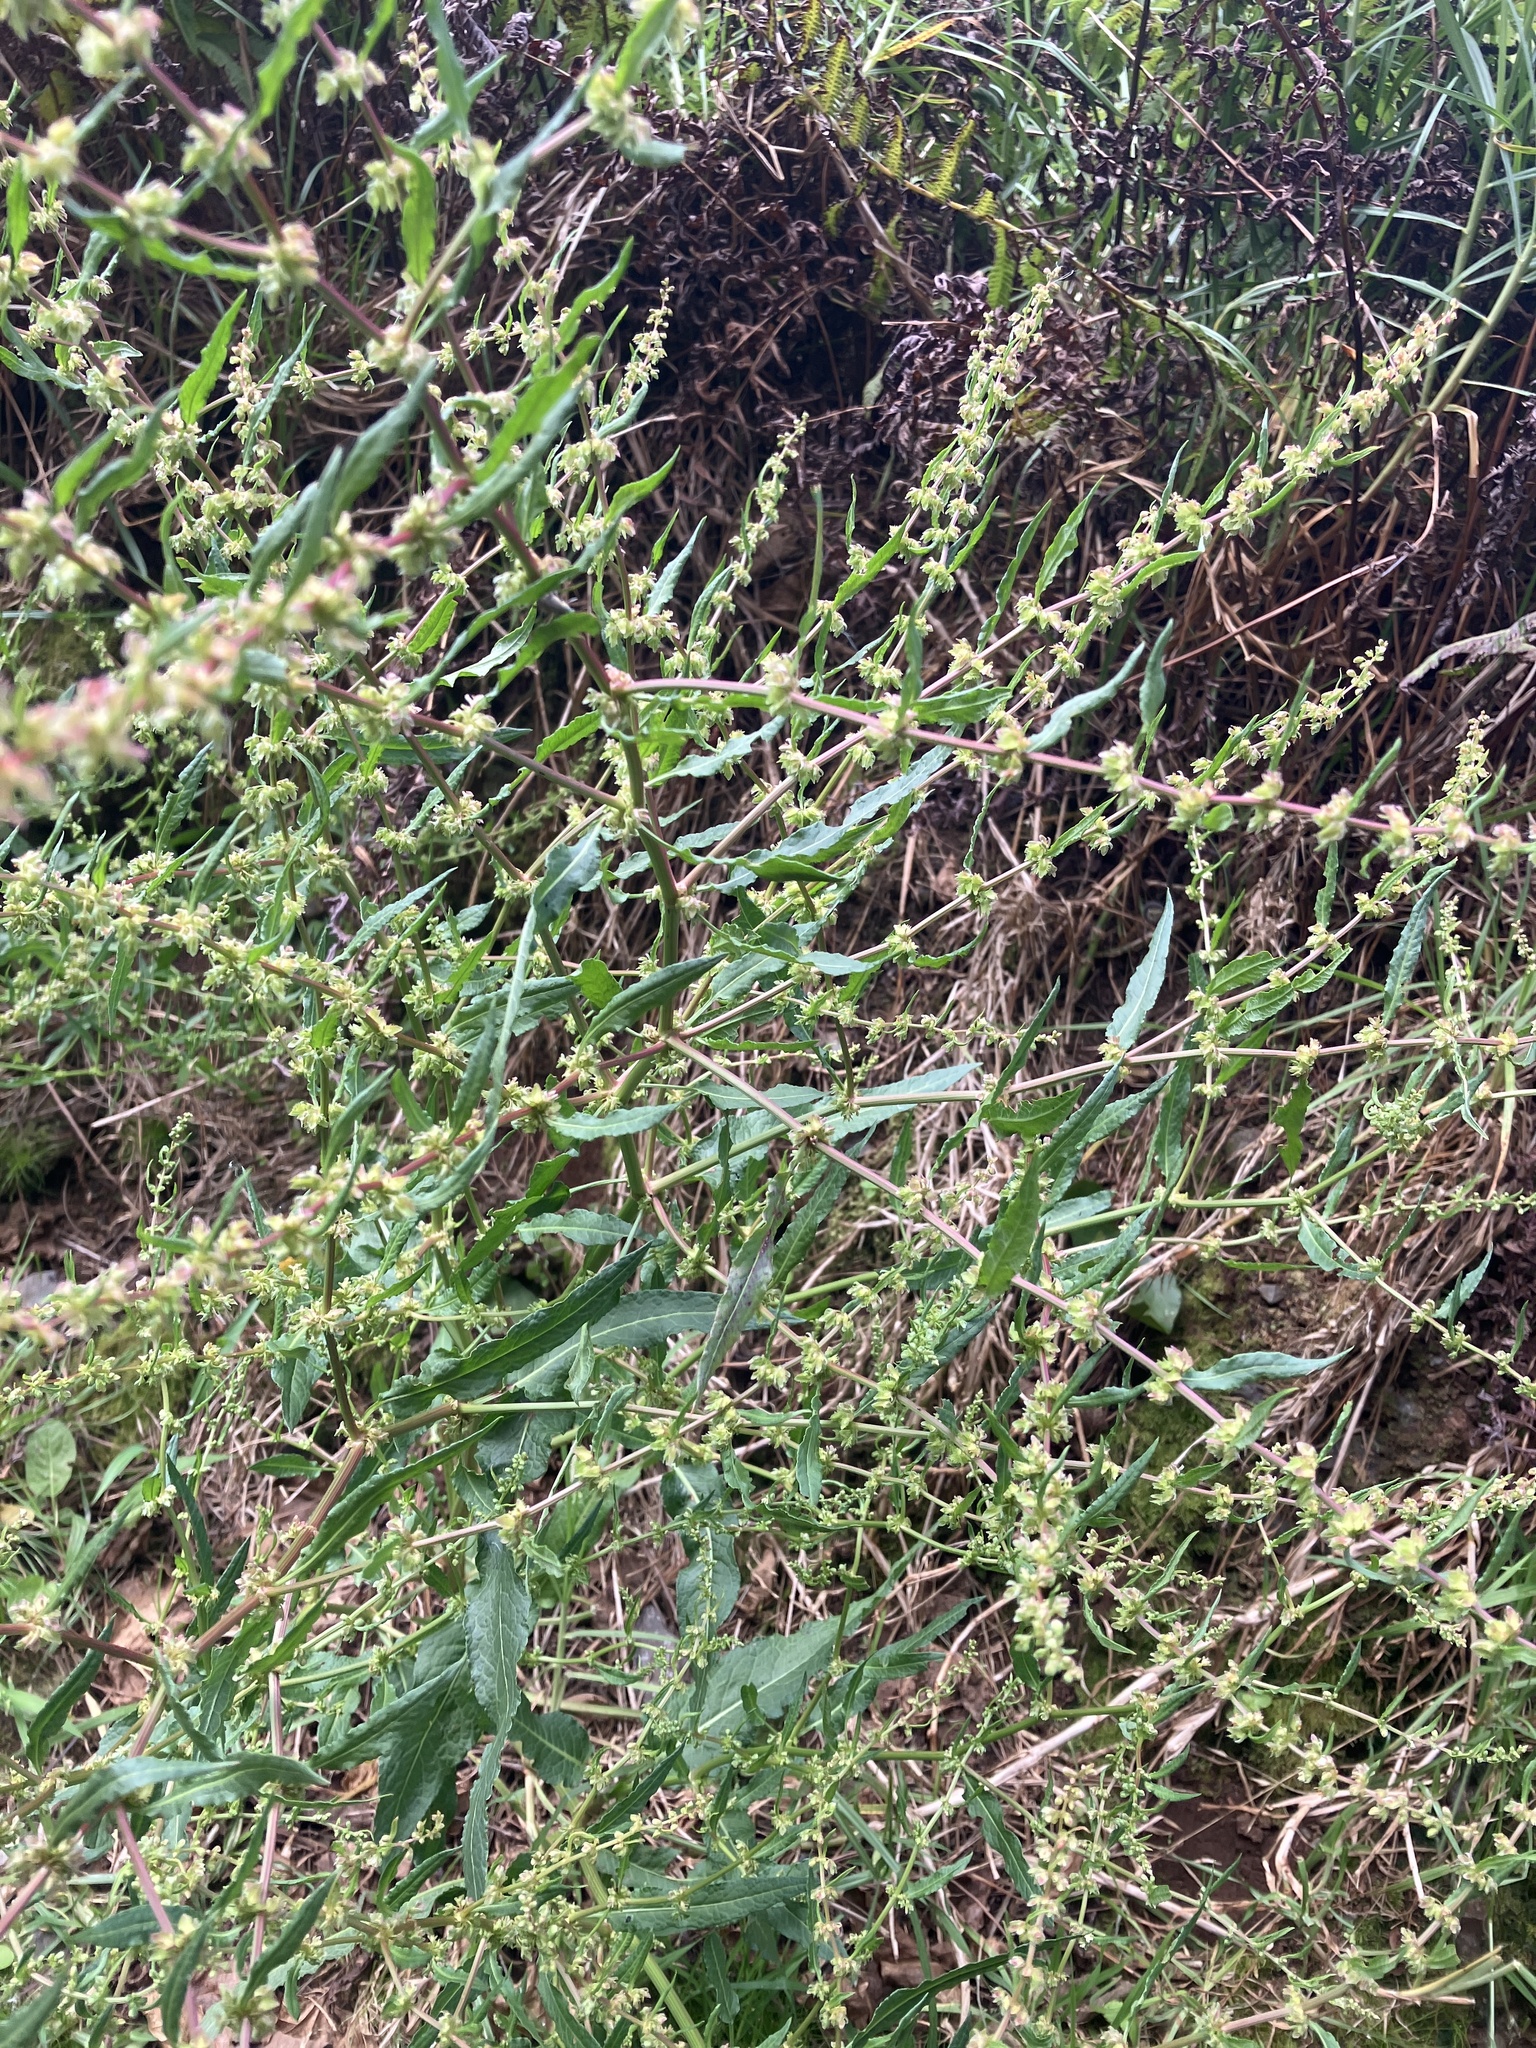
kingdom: Plantae
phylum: Tracheophyta
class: Magnoliopsida
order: Caryophyllales
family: Polygonaceae
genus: Rumex
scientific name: Rumex pulcher
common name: Fiddle dock
